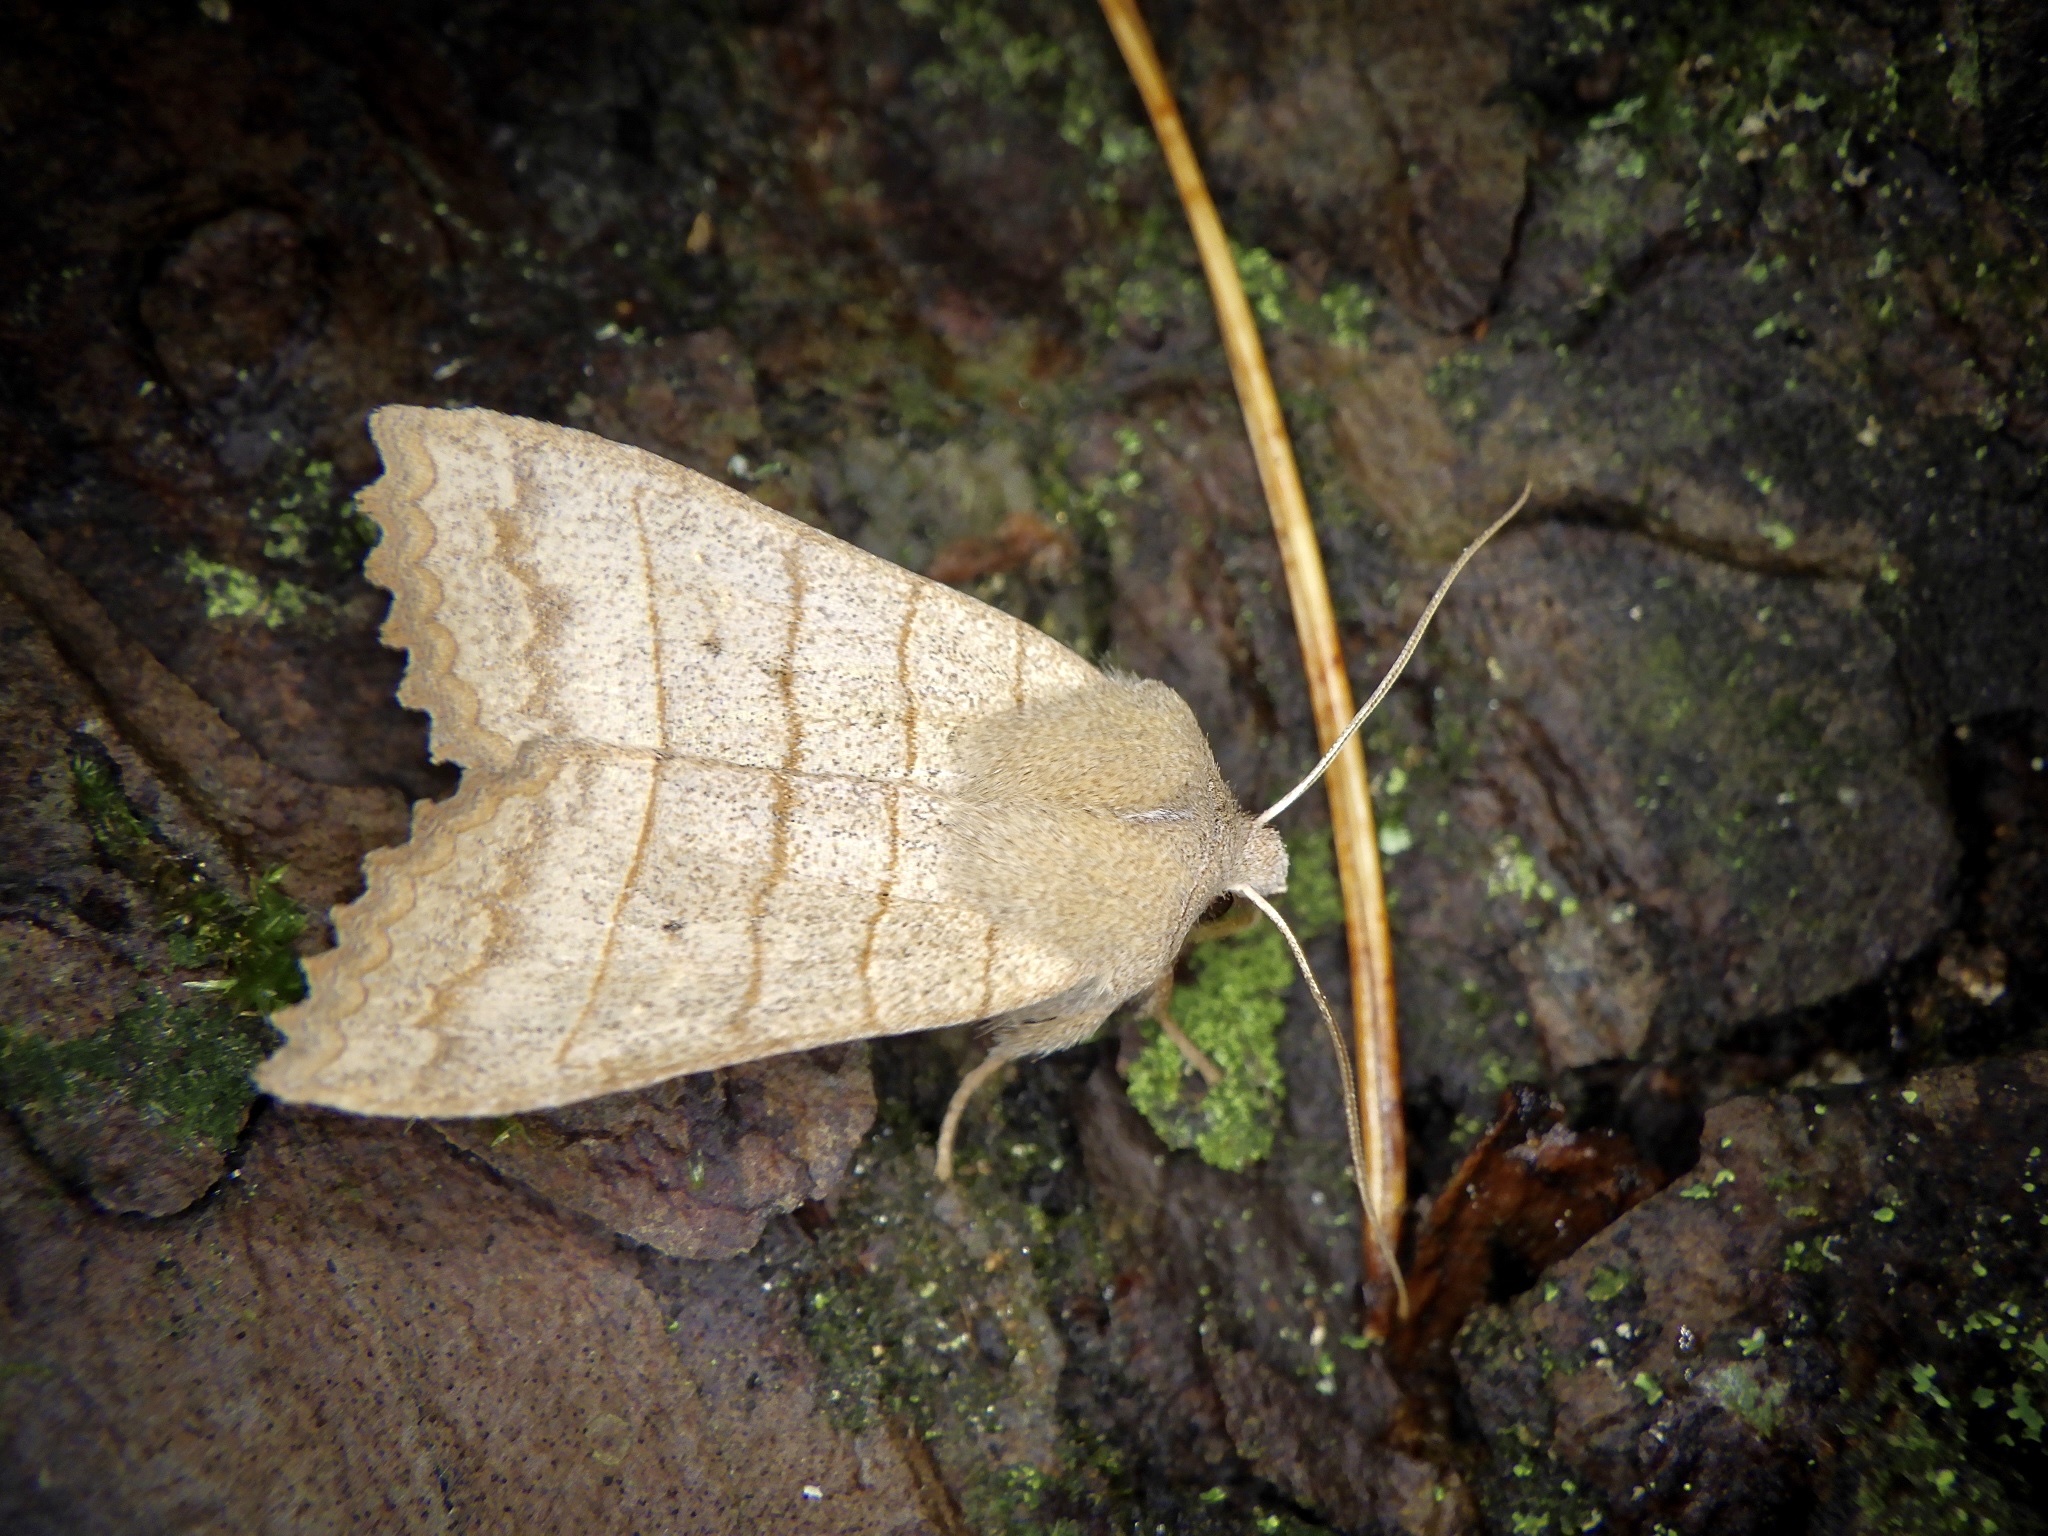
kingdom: Animalia
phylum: Arthropoda
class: Insecta
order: Lepidoptera
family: Noctuidae
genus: Eupsilia
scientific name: Eupsilia quadrilinea
